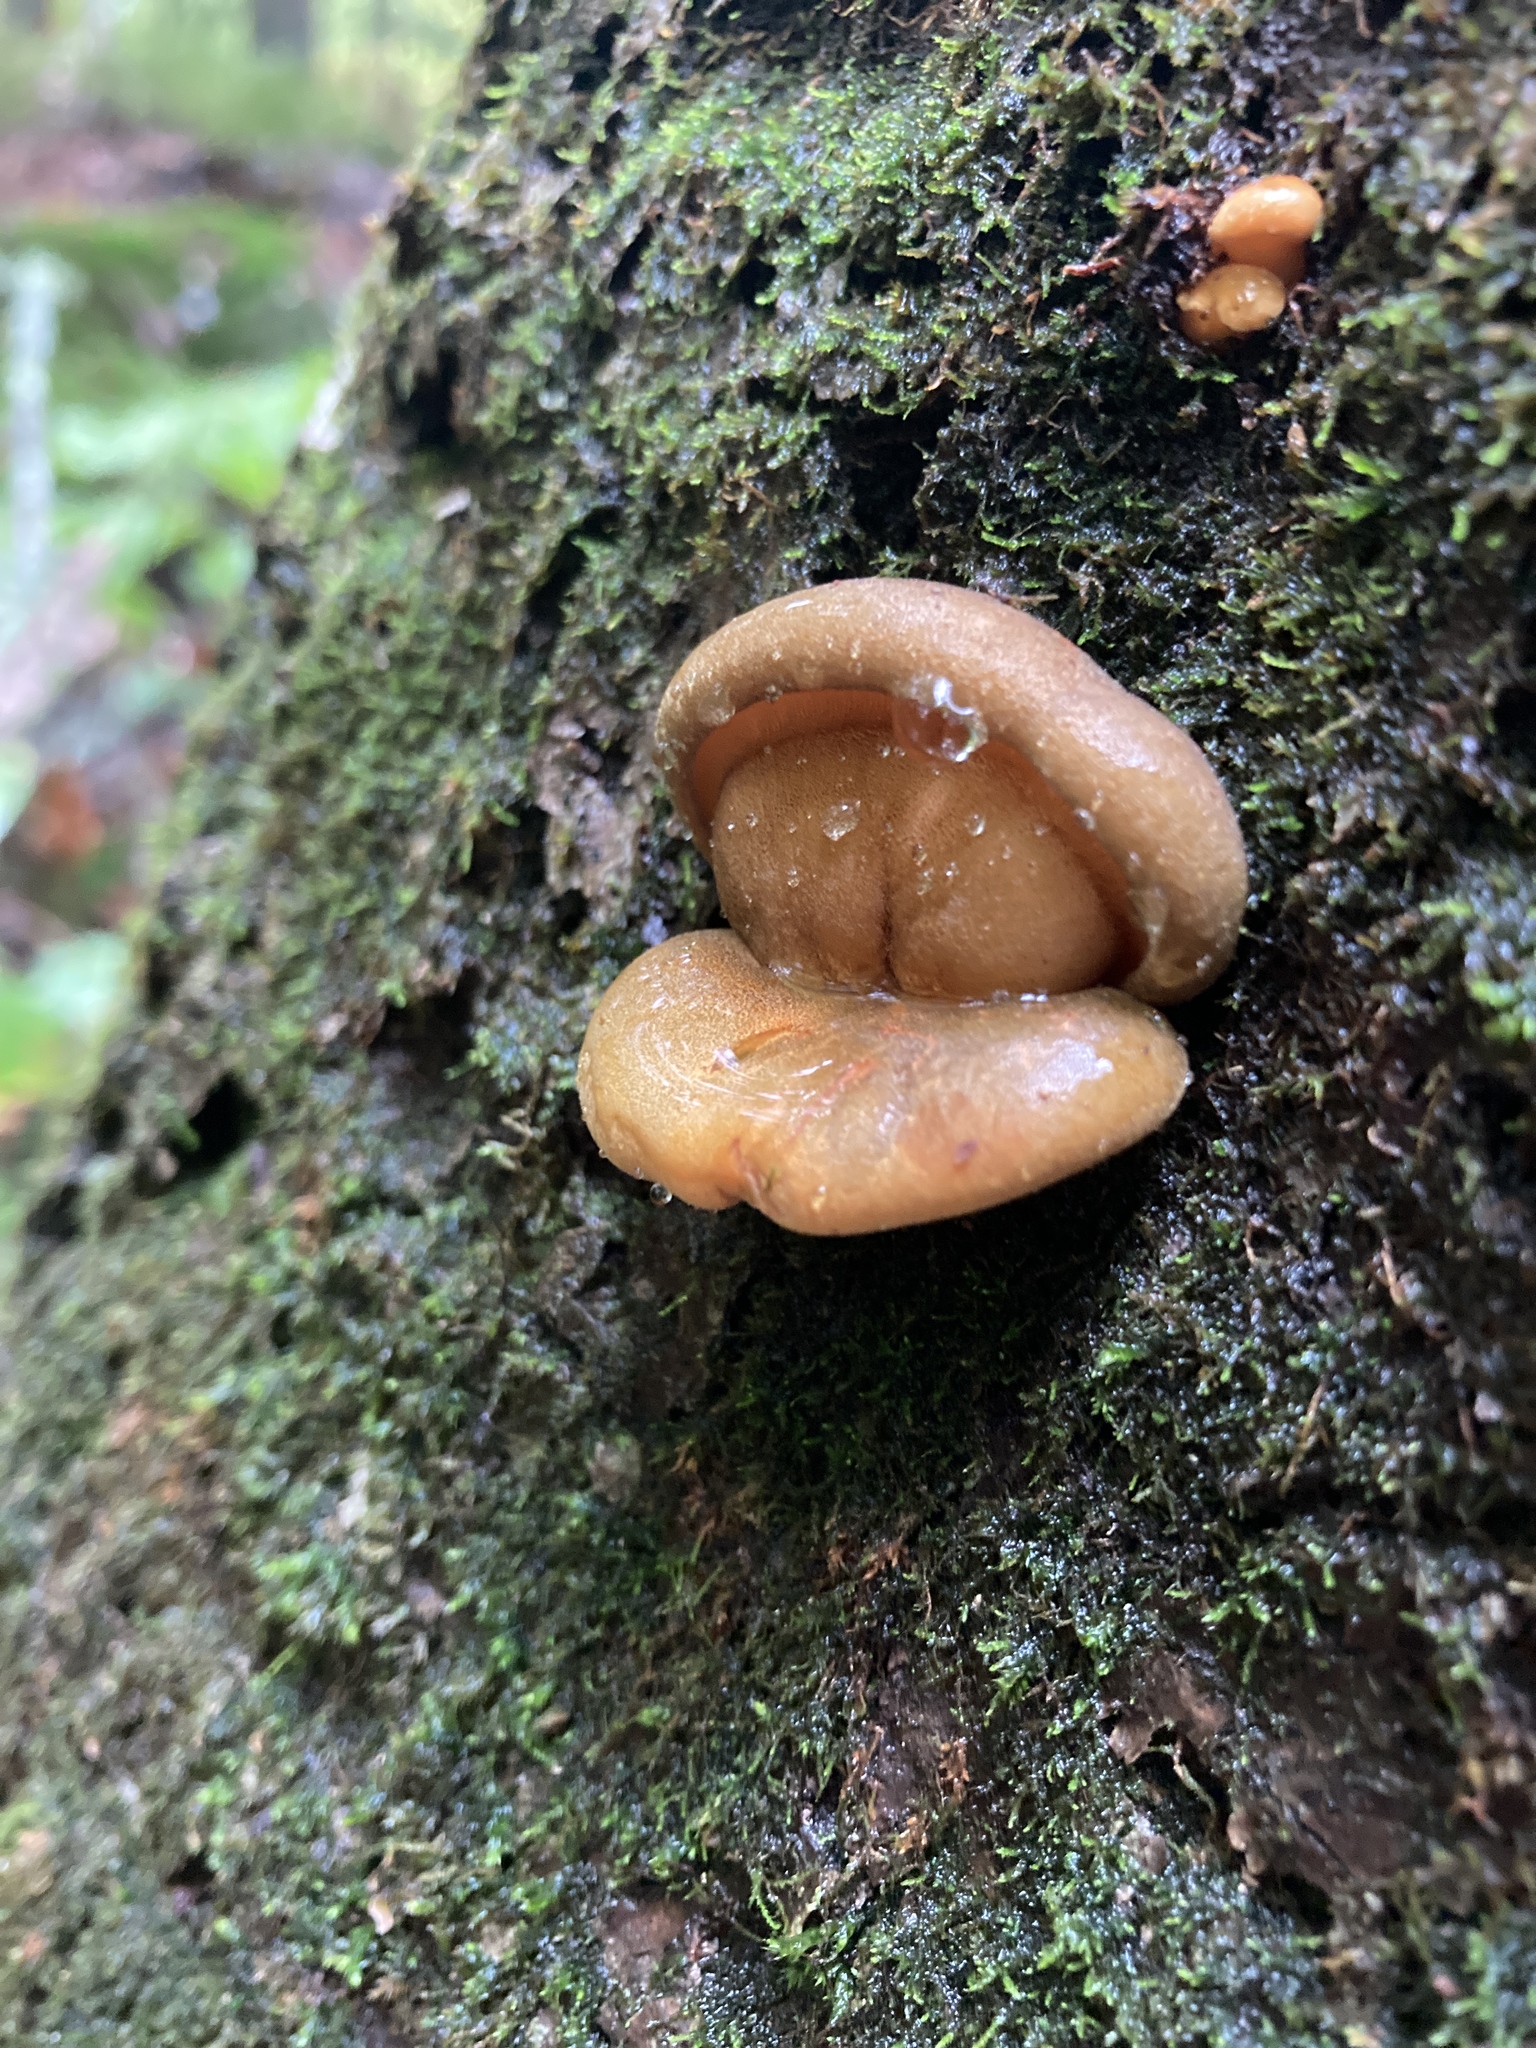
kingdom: Fungi
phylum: Basidiomycota
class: Agaricomycetes
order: Agaricales
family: Sarcomyxaceae
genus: Sarcomyxa
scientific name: Sarcomyxa serotina
